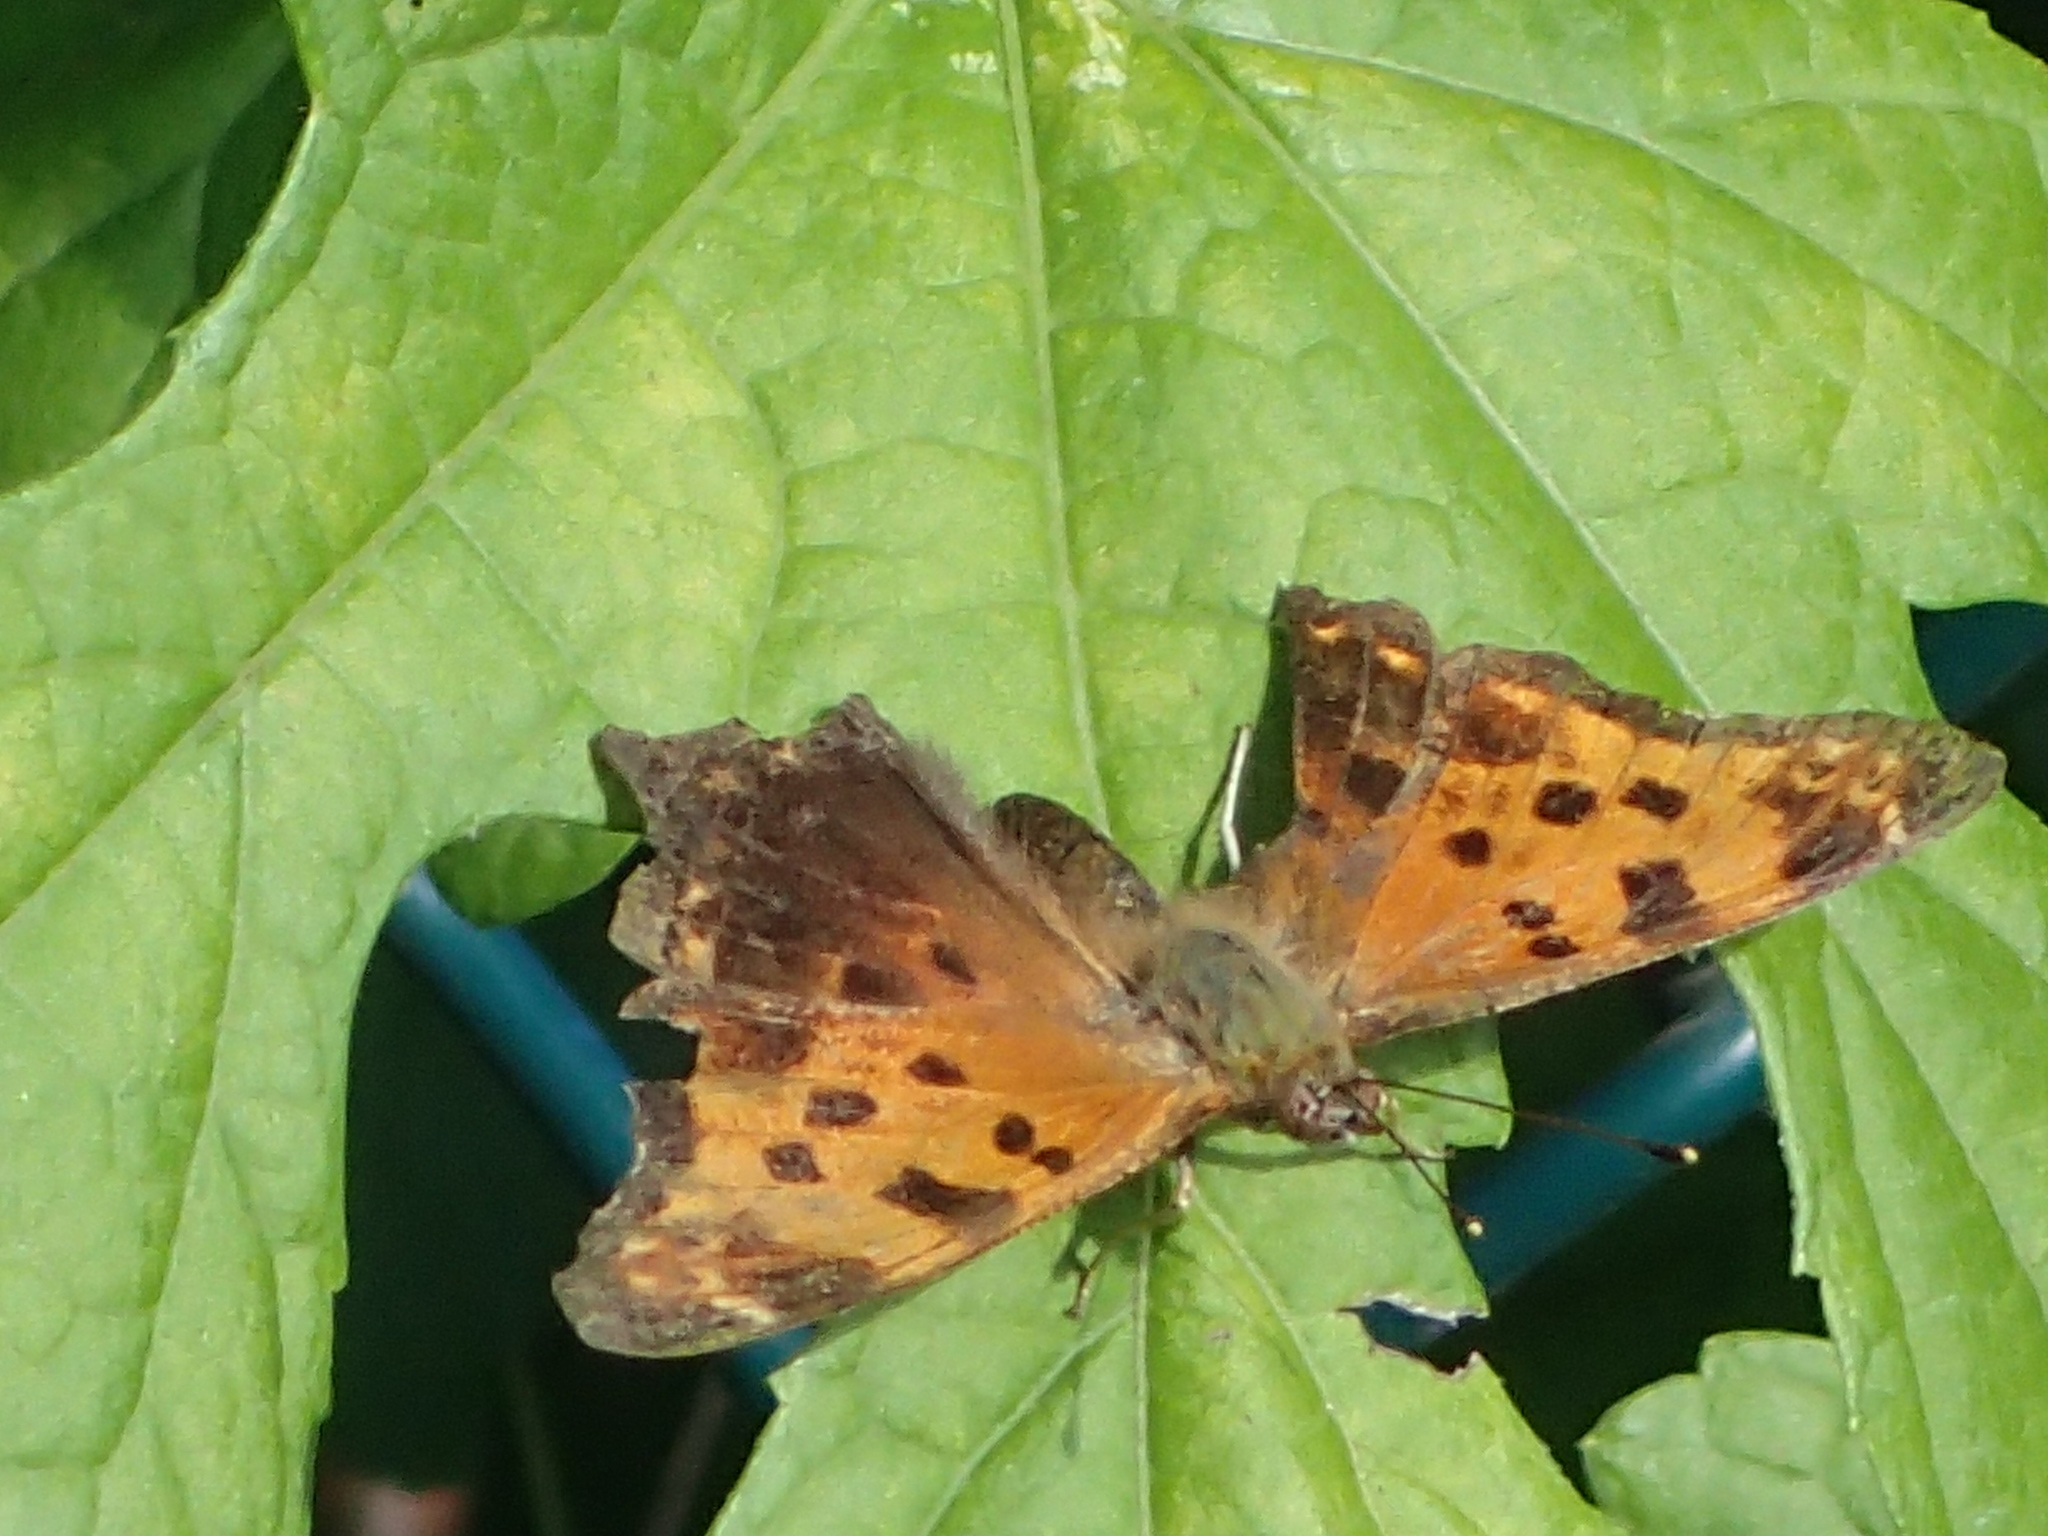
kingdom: Animalia
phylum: Arthropoda
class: Insecta
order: Lepidoptera
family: Nymphalidae
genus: Polygonia
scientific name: Polygonia comma
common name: Eastern comma
